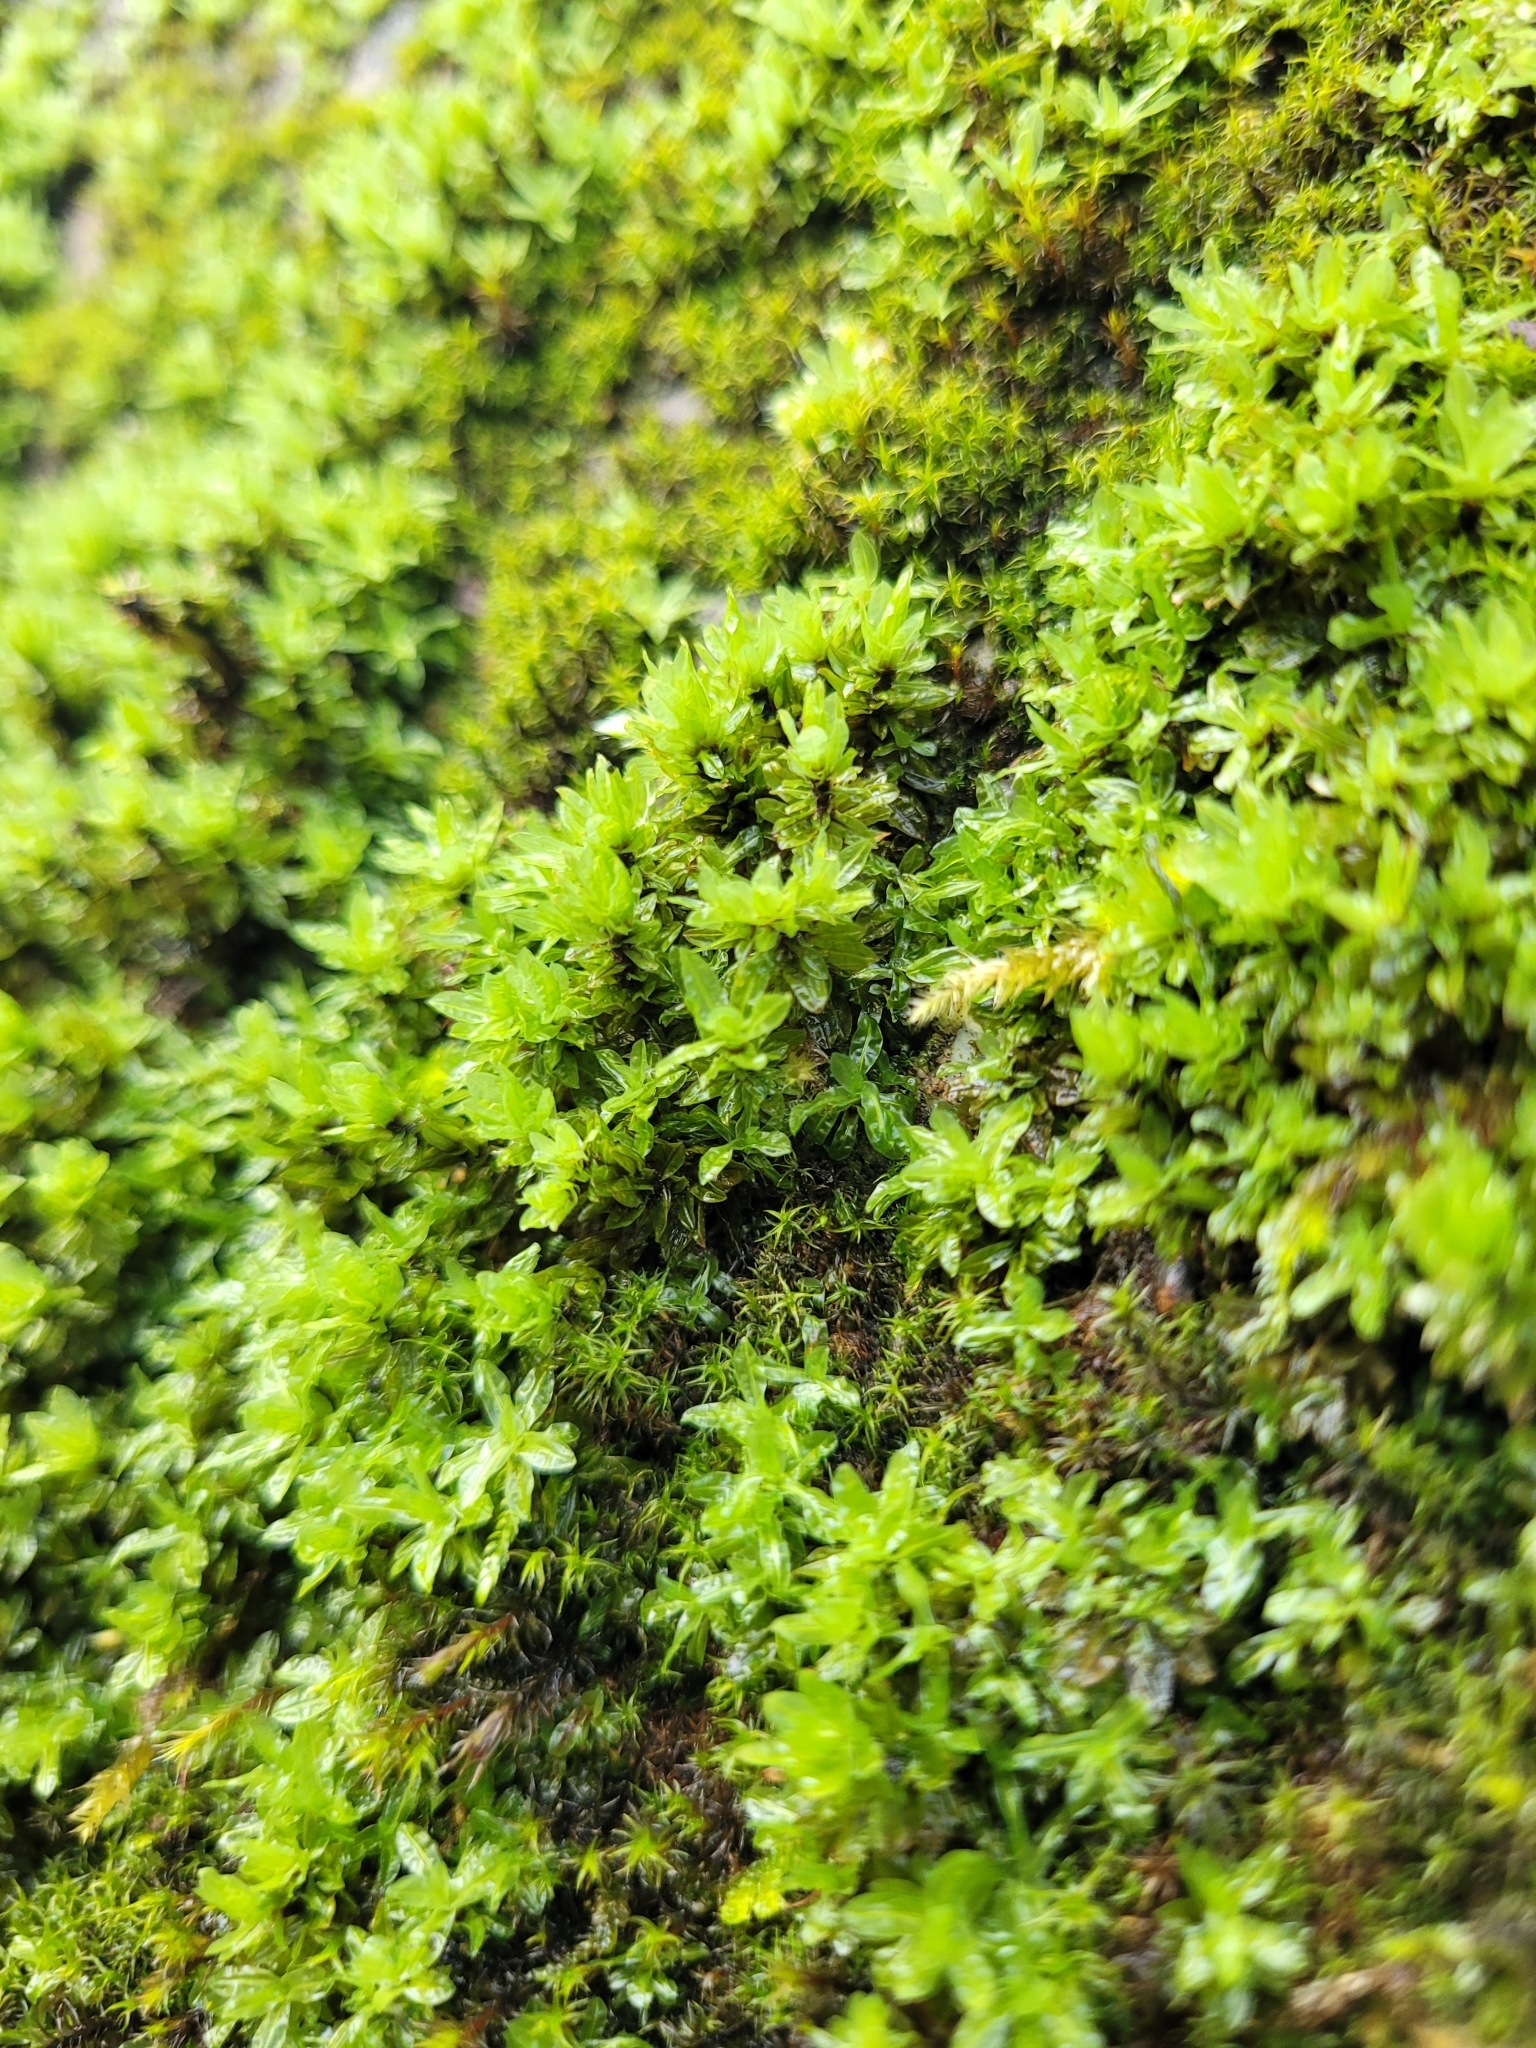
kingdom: Plantae
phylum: Bryophyta
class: Bryopsida
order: Encalyptales
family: Encalyptaceae
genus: Encalypta
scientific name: Encalypta streptocarpa
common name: Spiral extinguisher-moss
